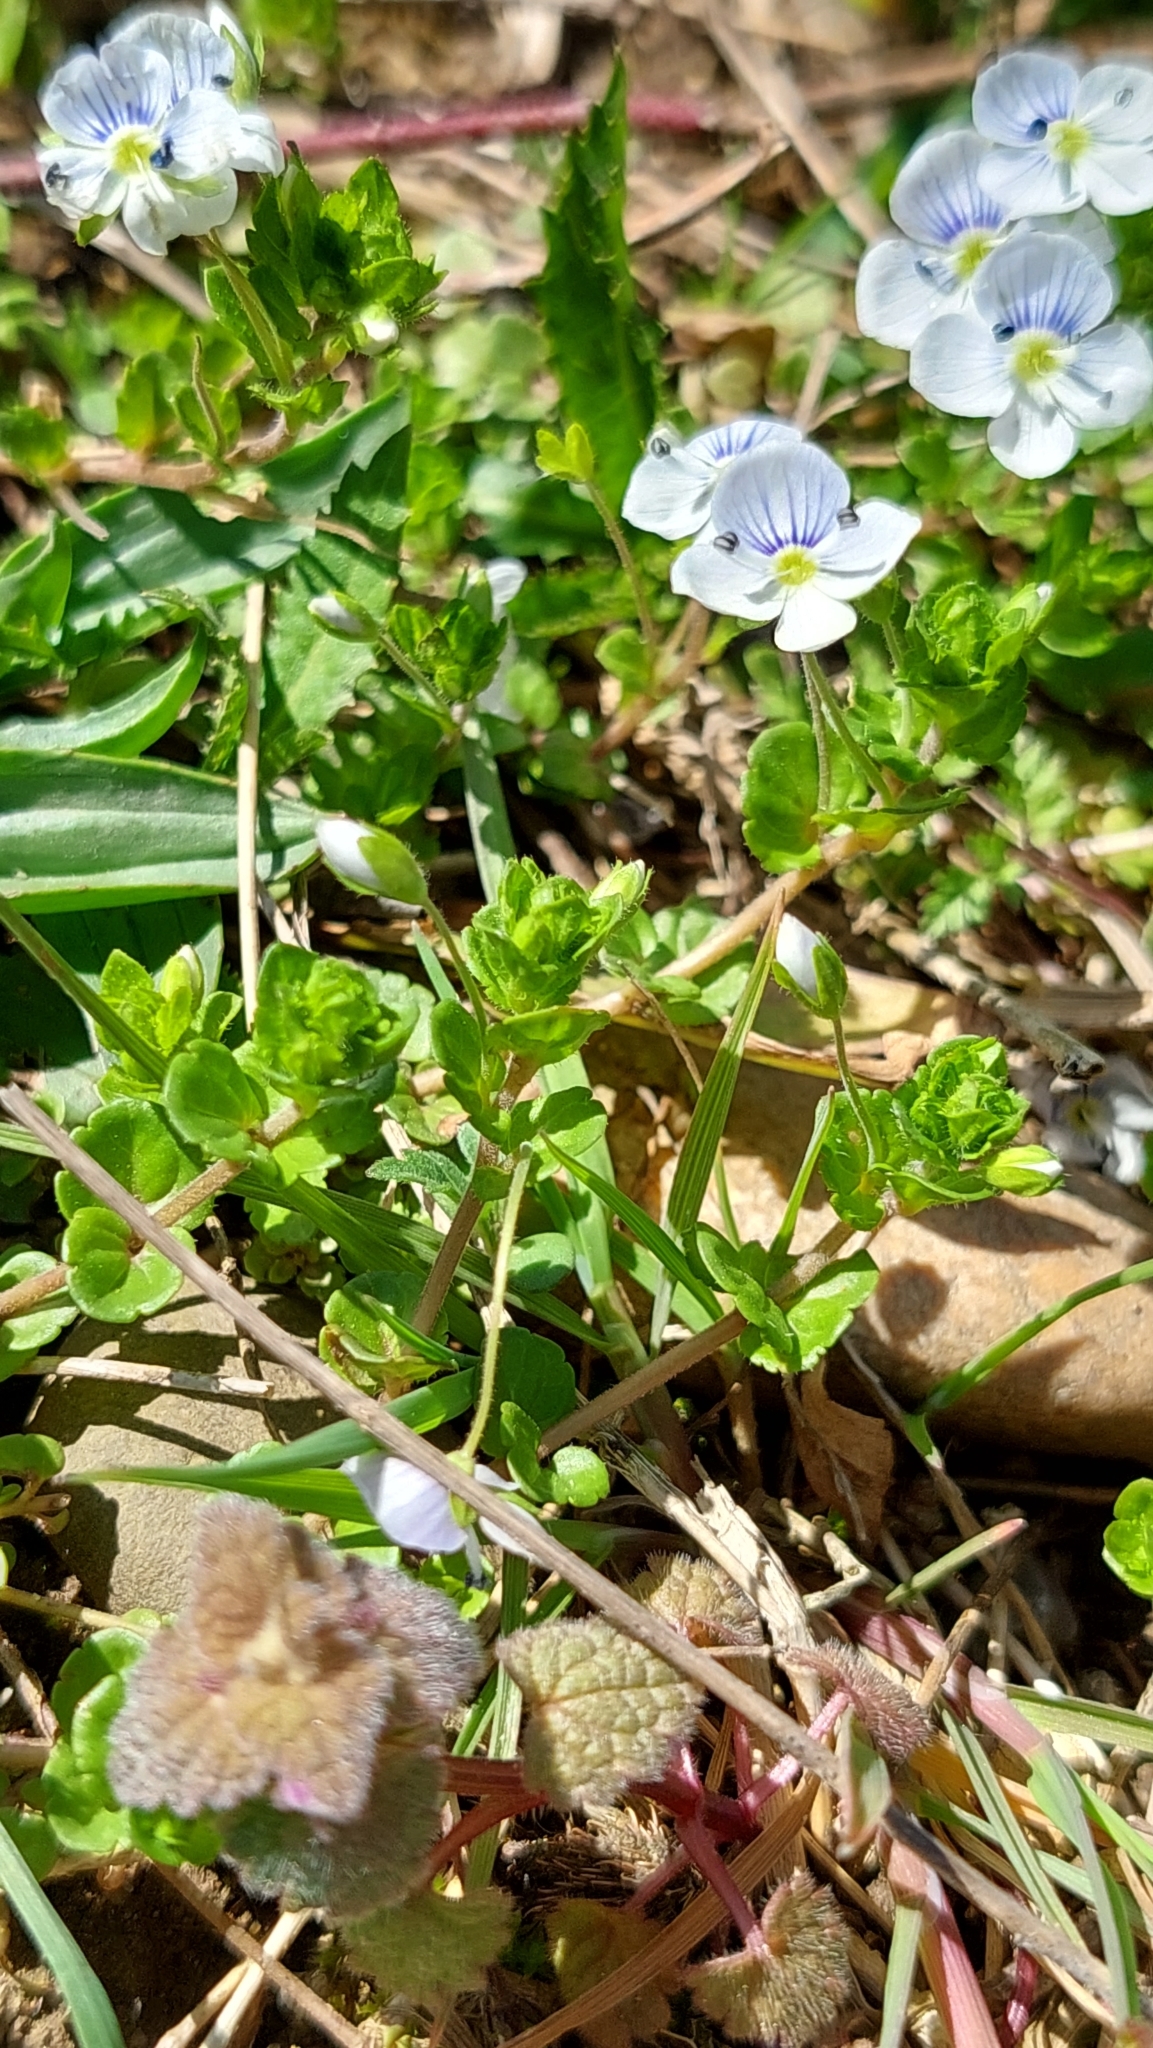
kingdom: Plantae
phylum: Tracheophyta
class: Magnoliopsida
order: Lamiales
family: Plantaginaceae
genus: Veronica
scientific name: Veronica filiformis
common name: Slender speedwell
